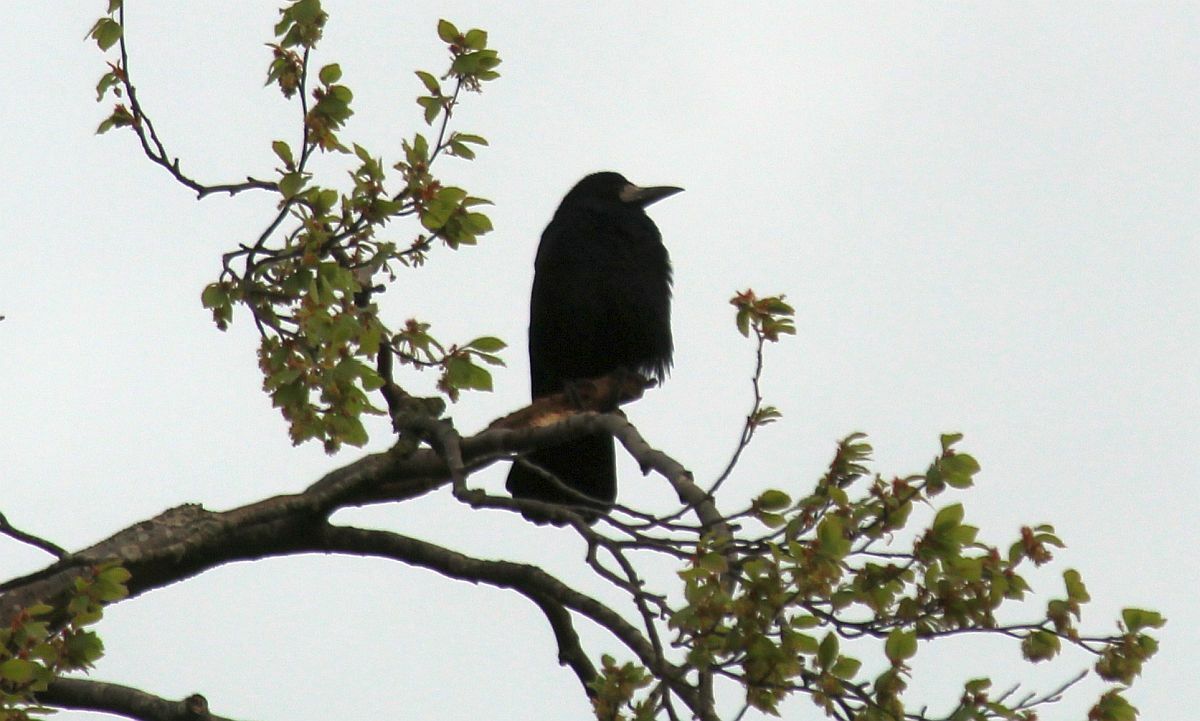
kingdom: Animalia
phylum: Chordata
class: Aves
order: Passeriformes
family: Corvidae
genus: Corvus
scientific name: Corvus frugilegus
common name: Rook
